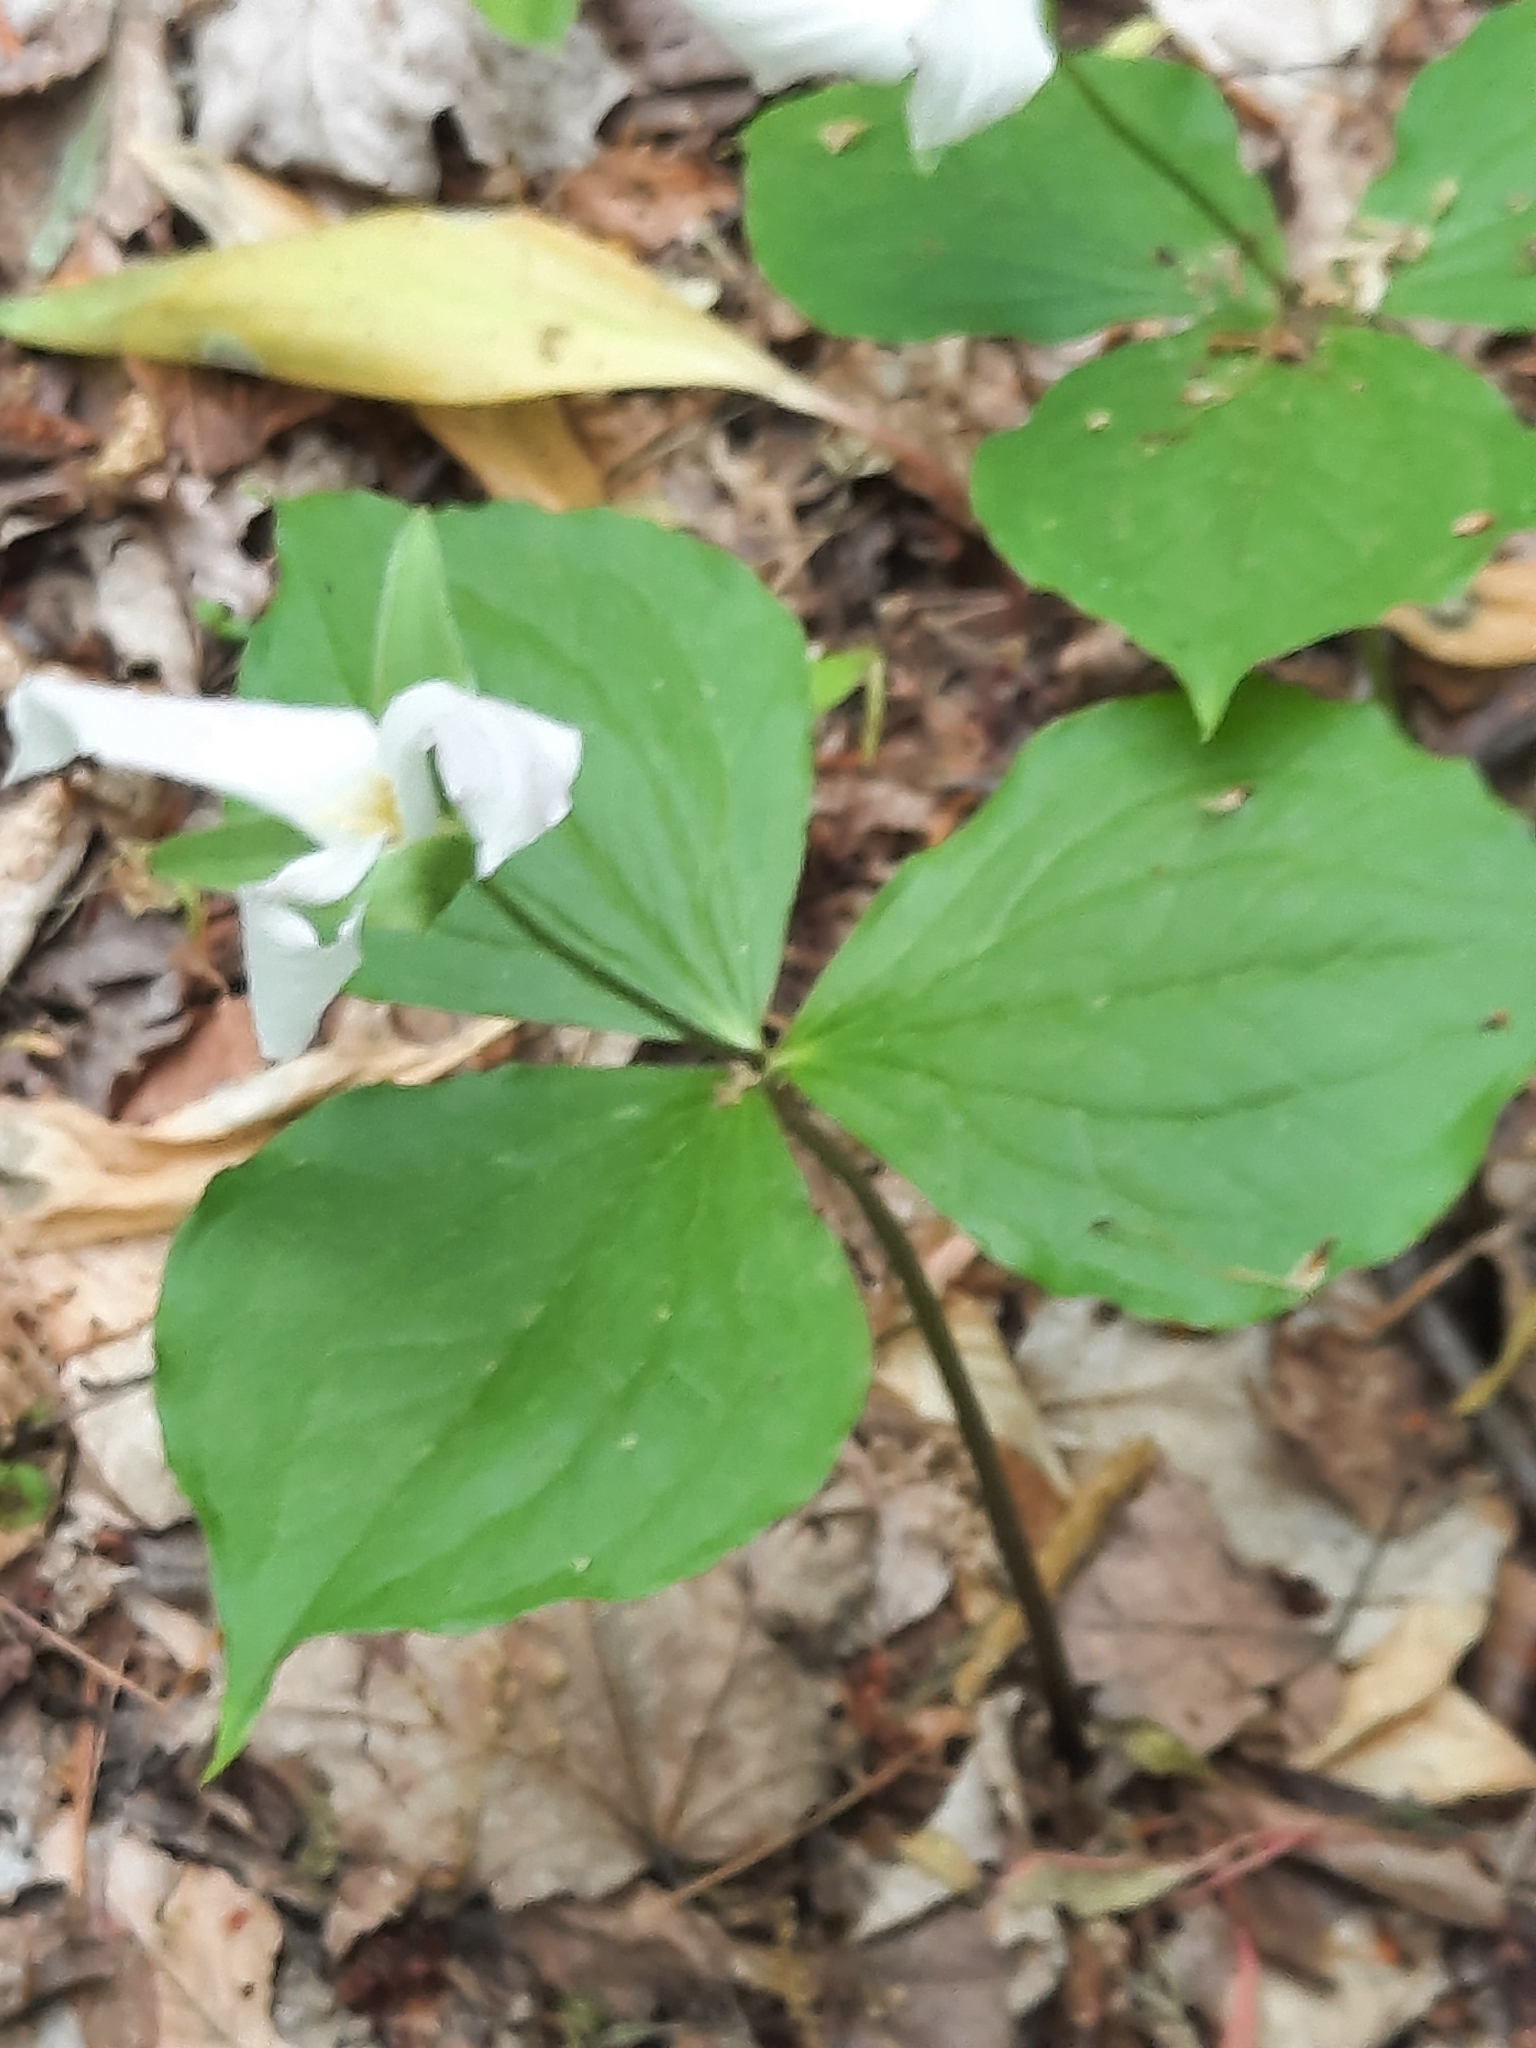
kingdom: Plantae
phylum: Tracheophyta
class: Liliopsida
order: Liliales
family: Melanthiaceae
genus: Trillium
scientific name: Trillium grandiflorum
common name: Great white trillium
